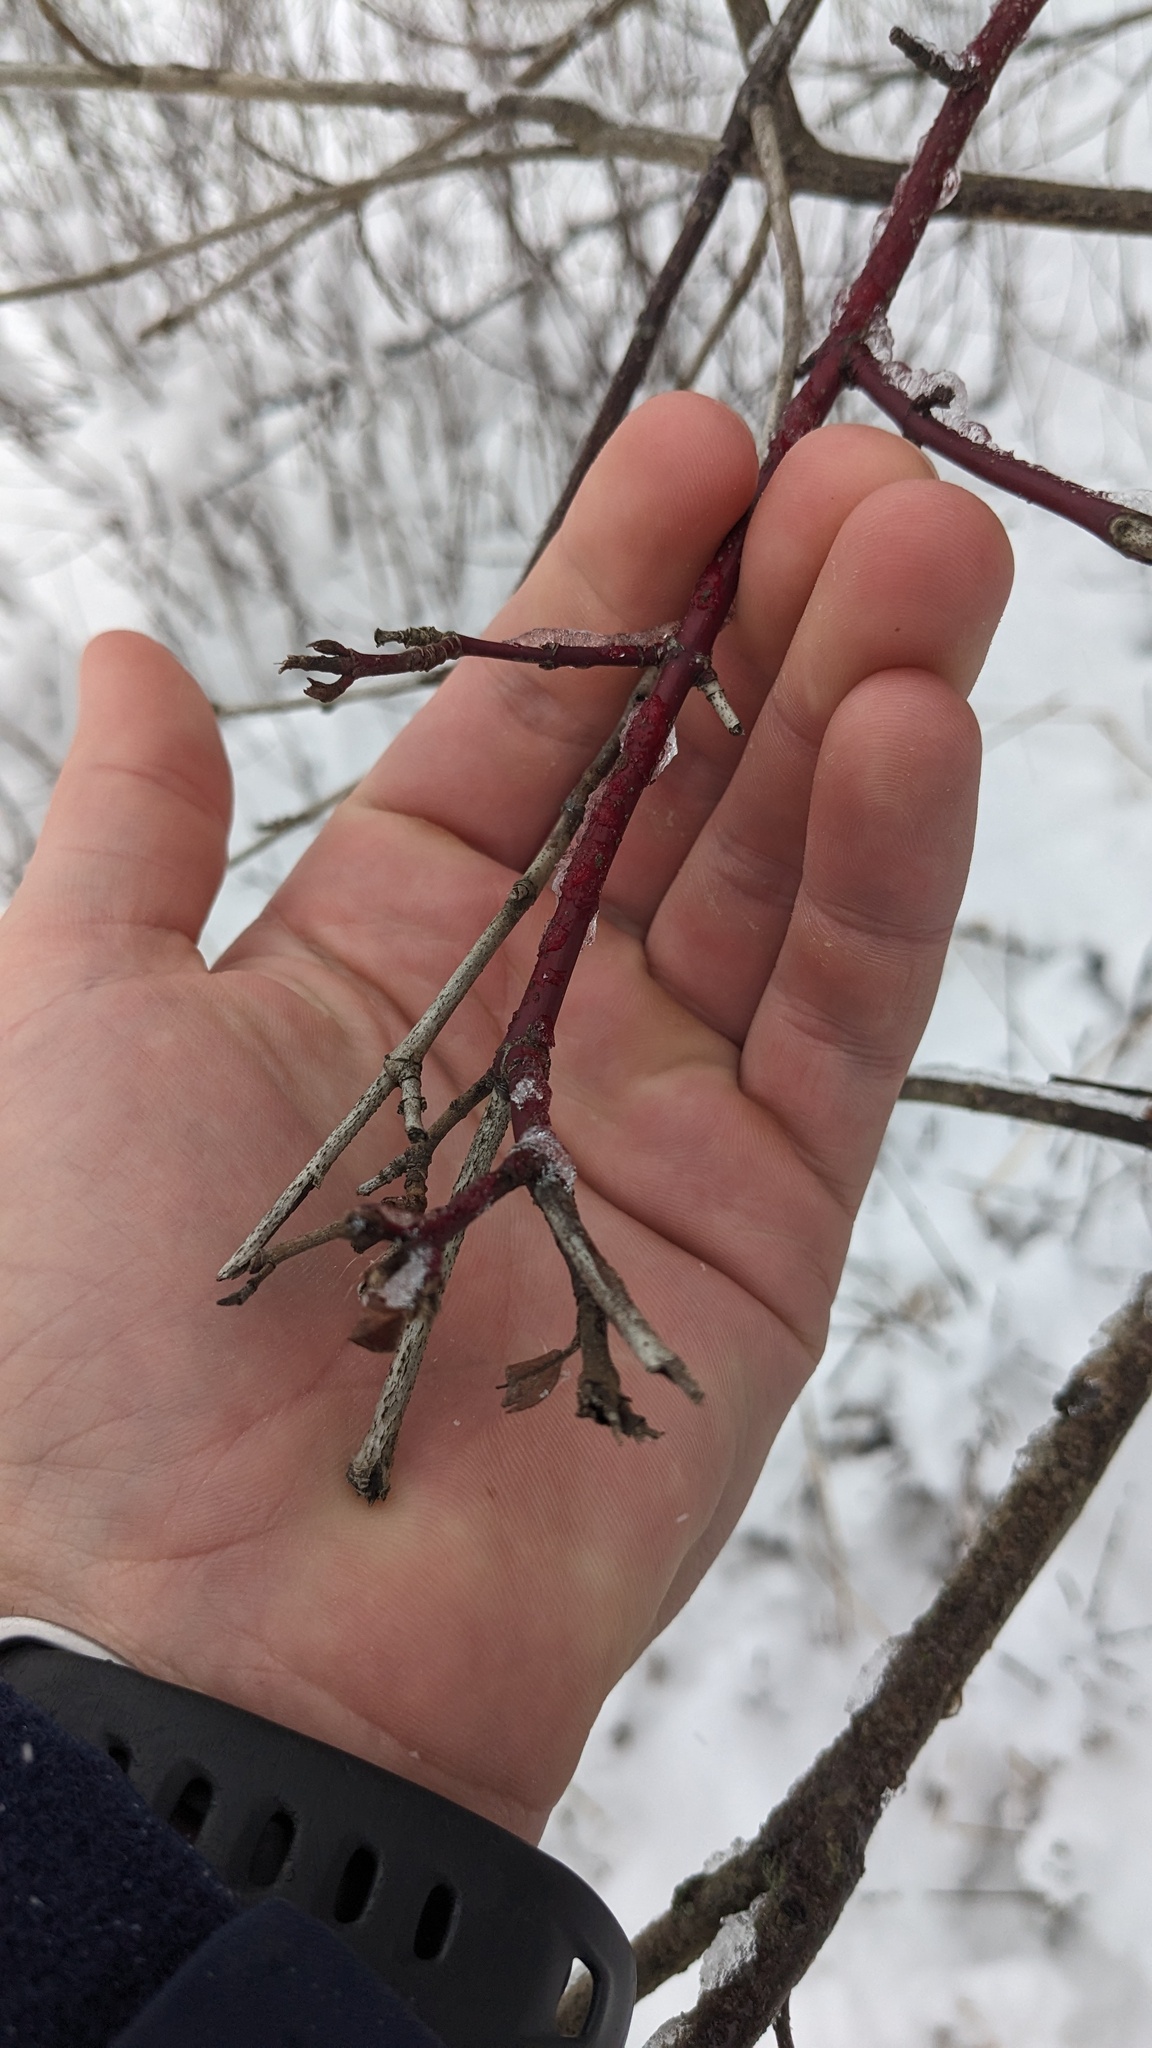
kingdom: Plantae
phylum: Tracheophyta
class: Magnoliopsida
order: Cornales
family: Cornaceae
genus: Cornus
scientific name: Cornus
